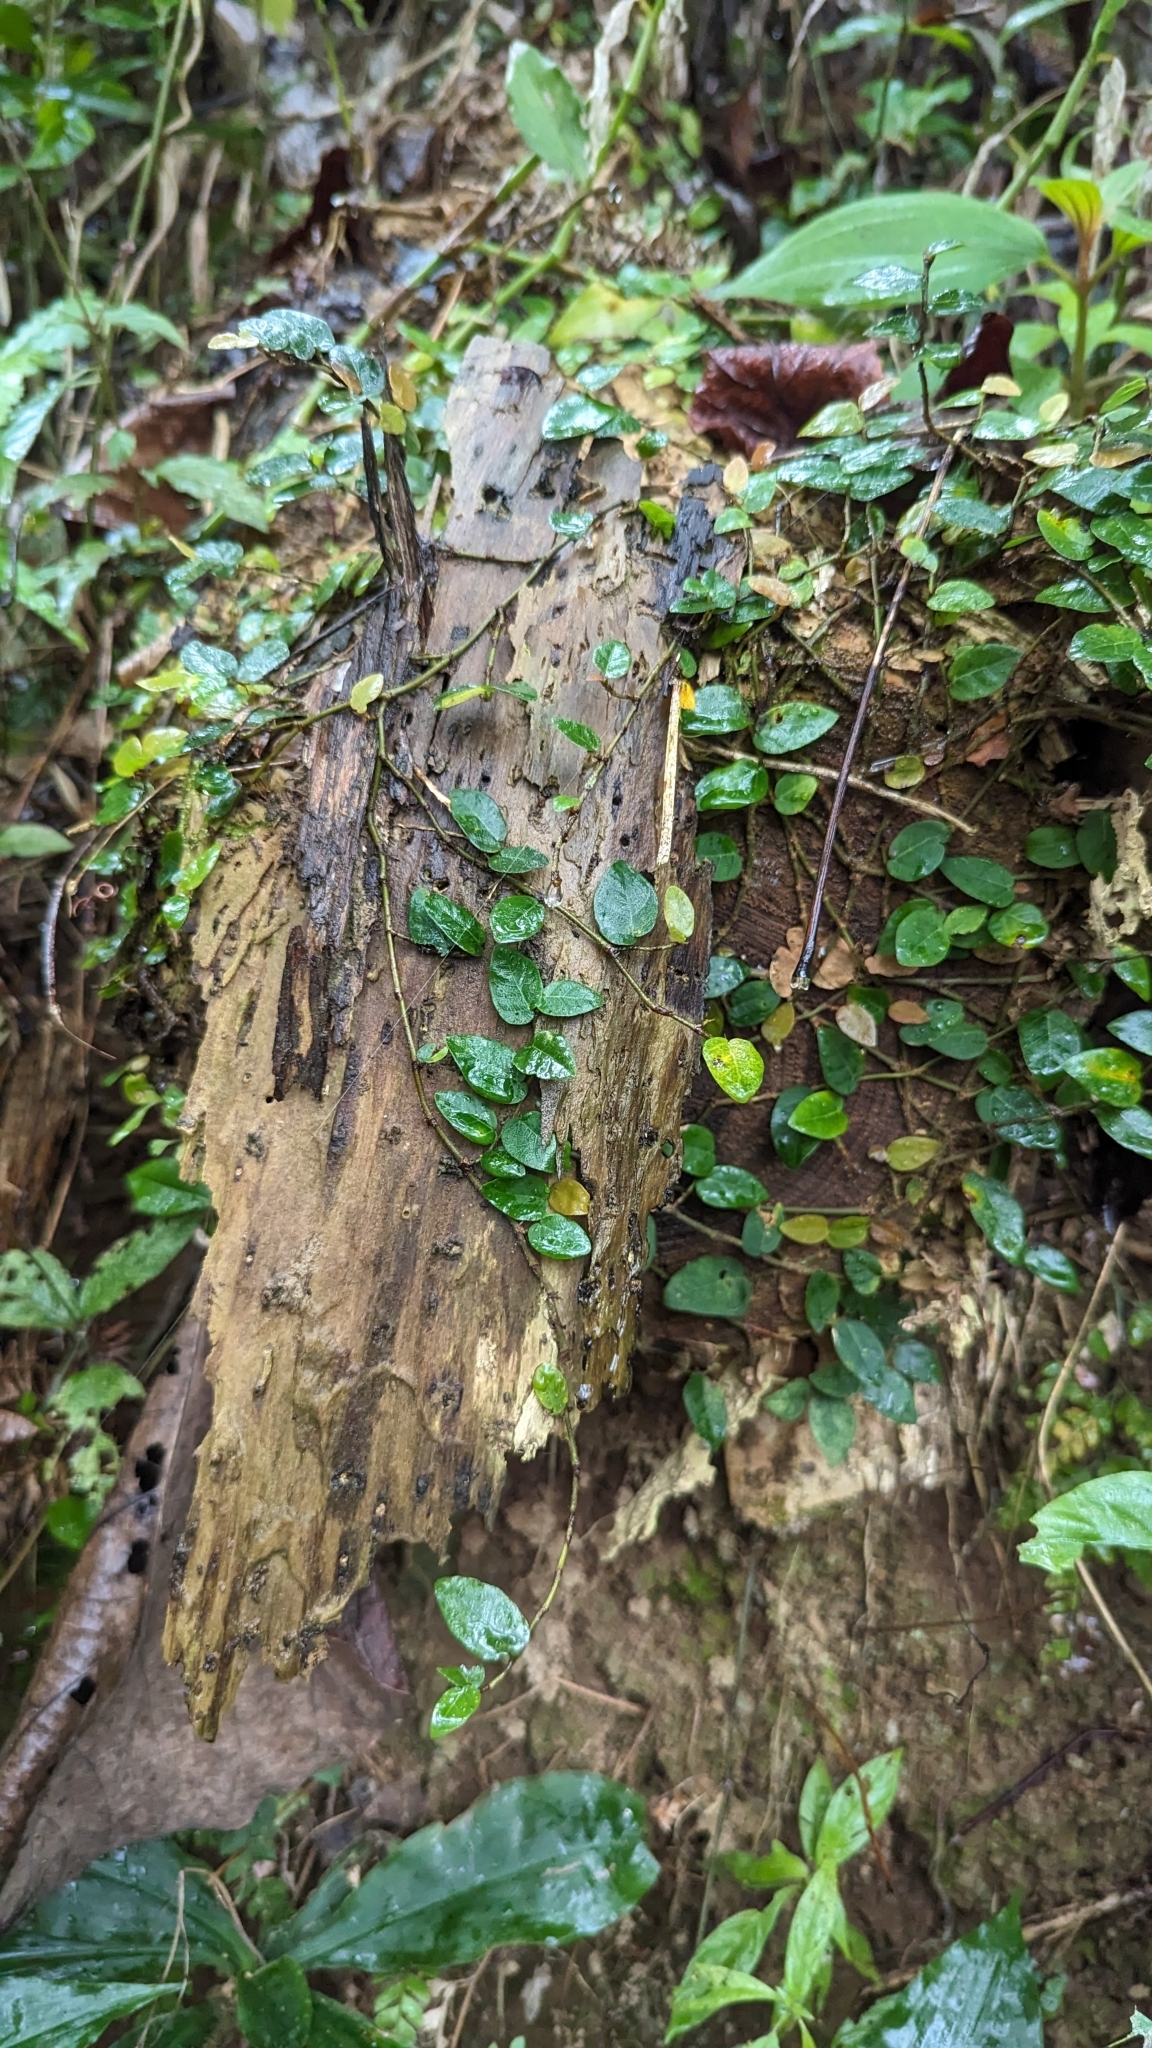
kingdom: Plantae
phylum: Tracheophyta
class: Magnoliopsida
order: Rosales
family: Moraceae
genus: Ficus
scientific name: Ficus pumila
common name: Climbingfig
